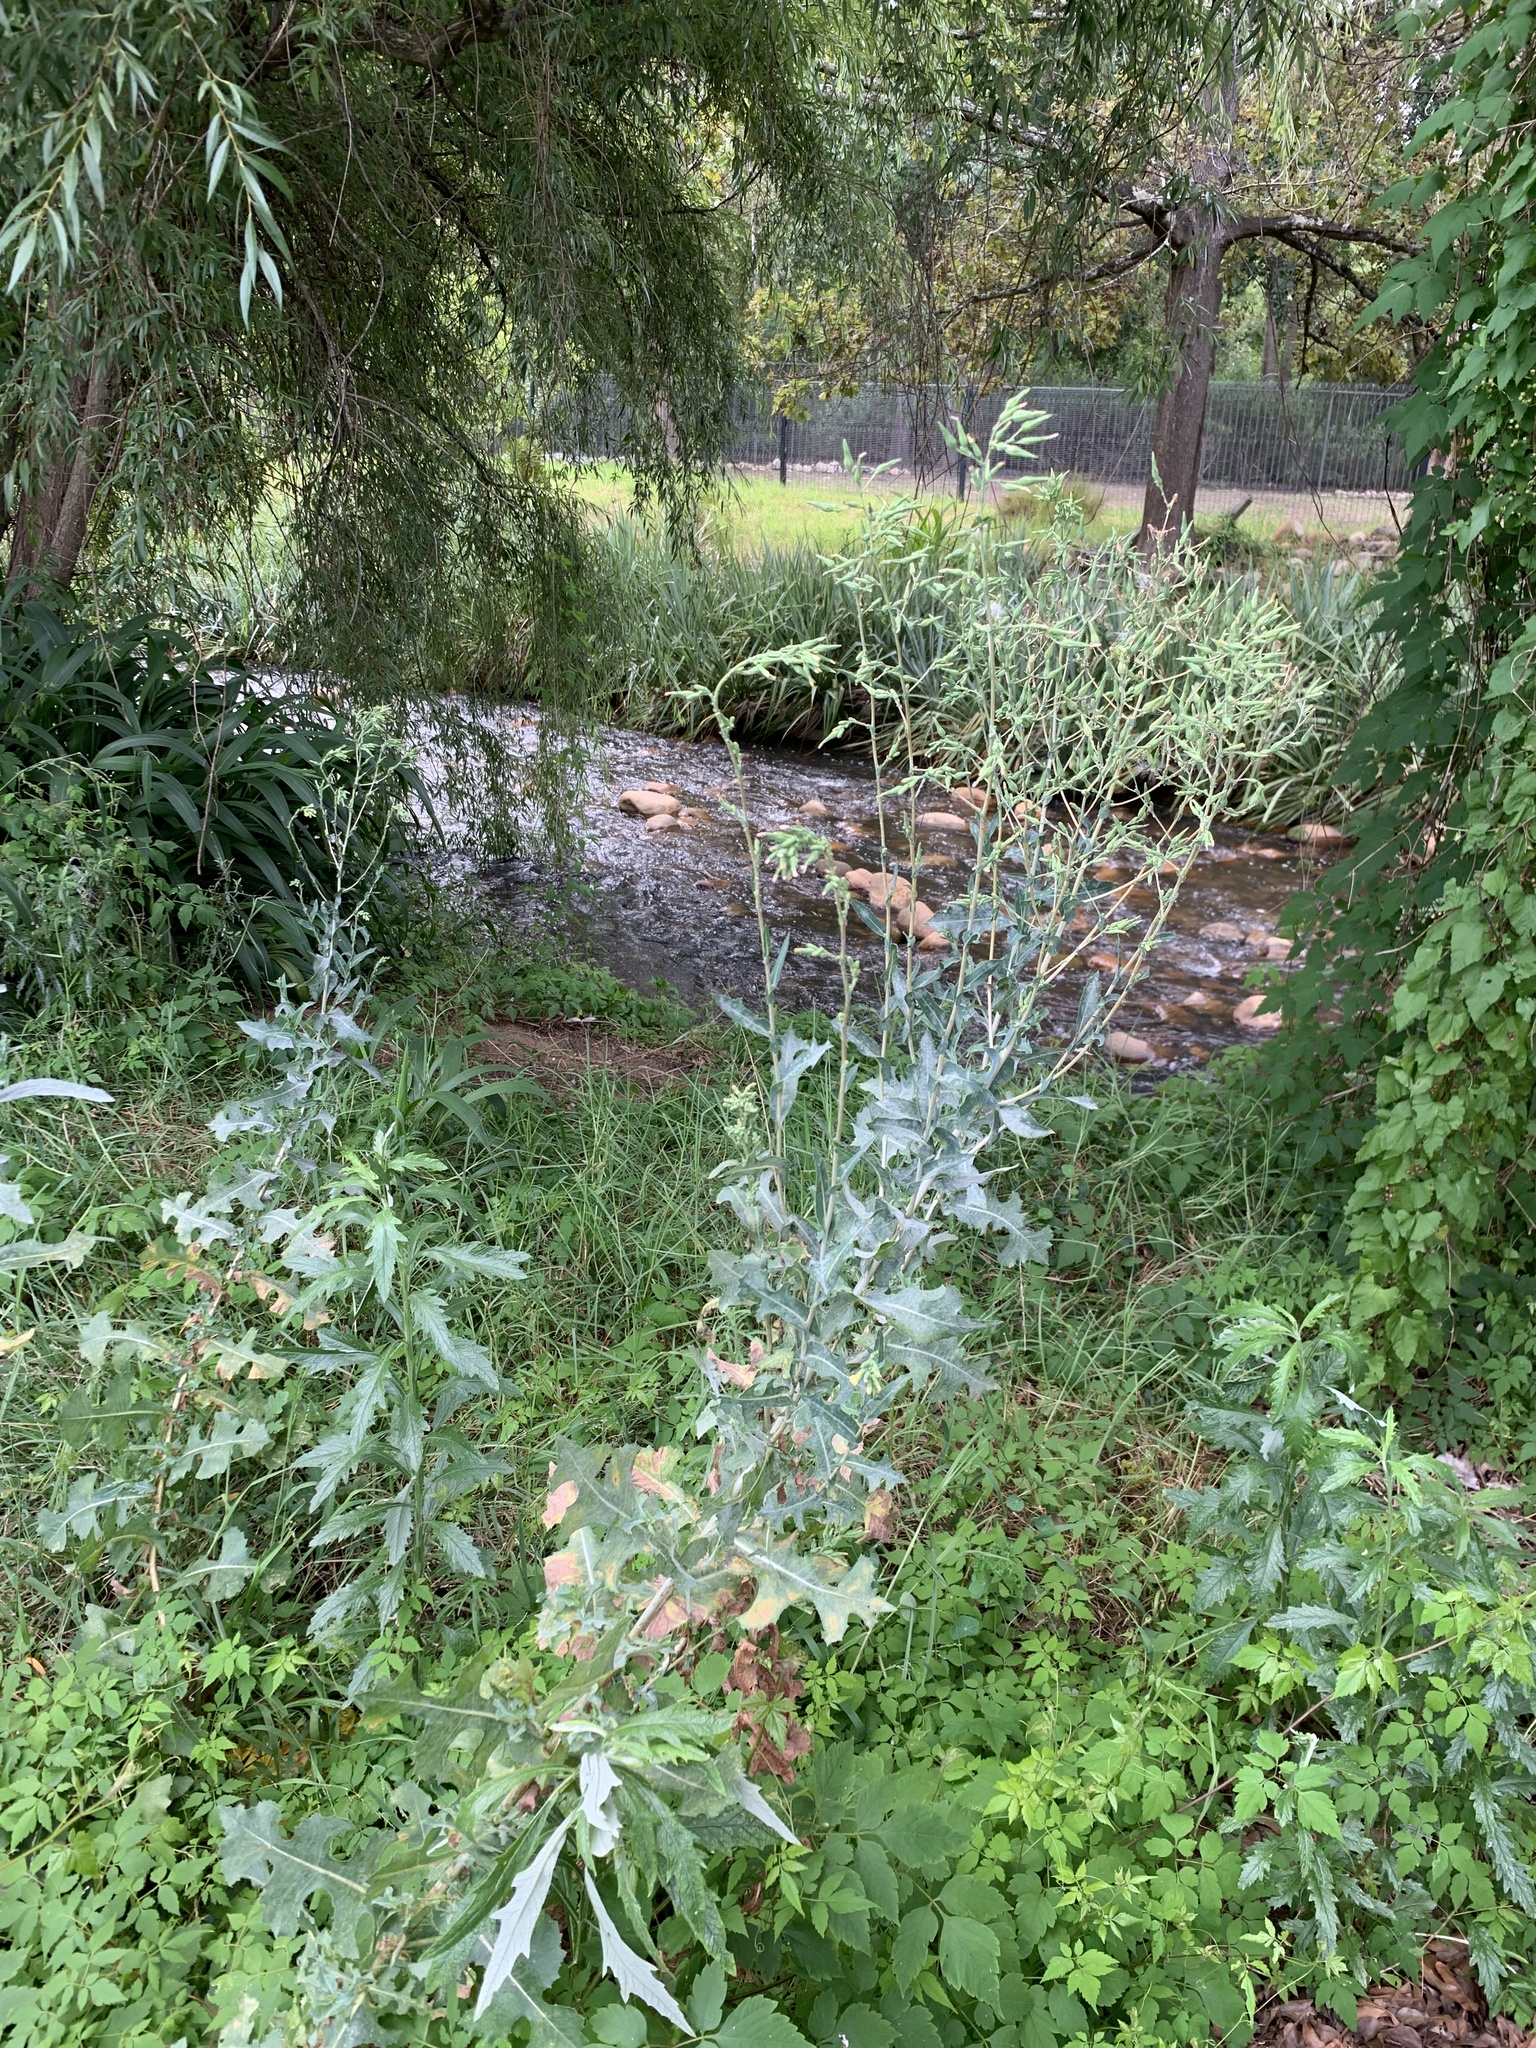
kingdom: Plantae
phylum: Tracheophyta
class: Magnoliopsida
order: Asterales
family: Asteraceae
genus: Lactuca
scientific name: Lactuca serriola
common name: Prickly lettuce
